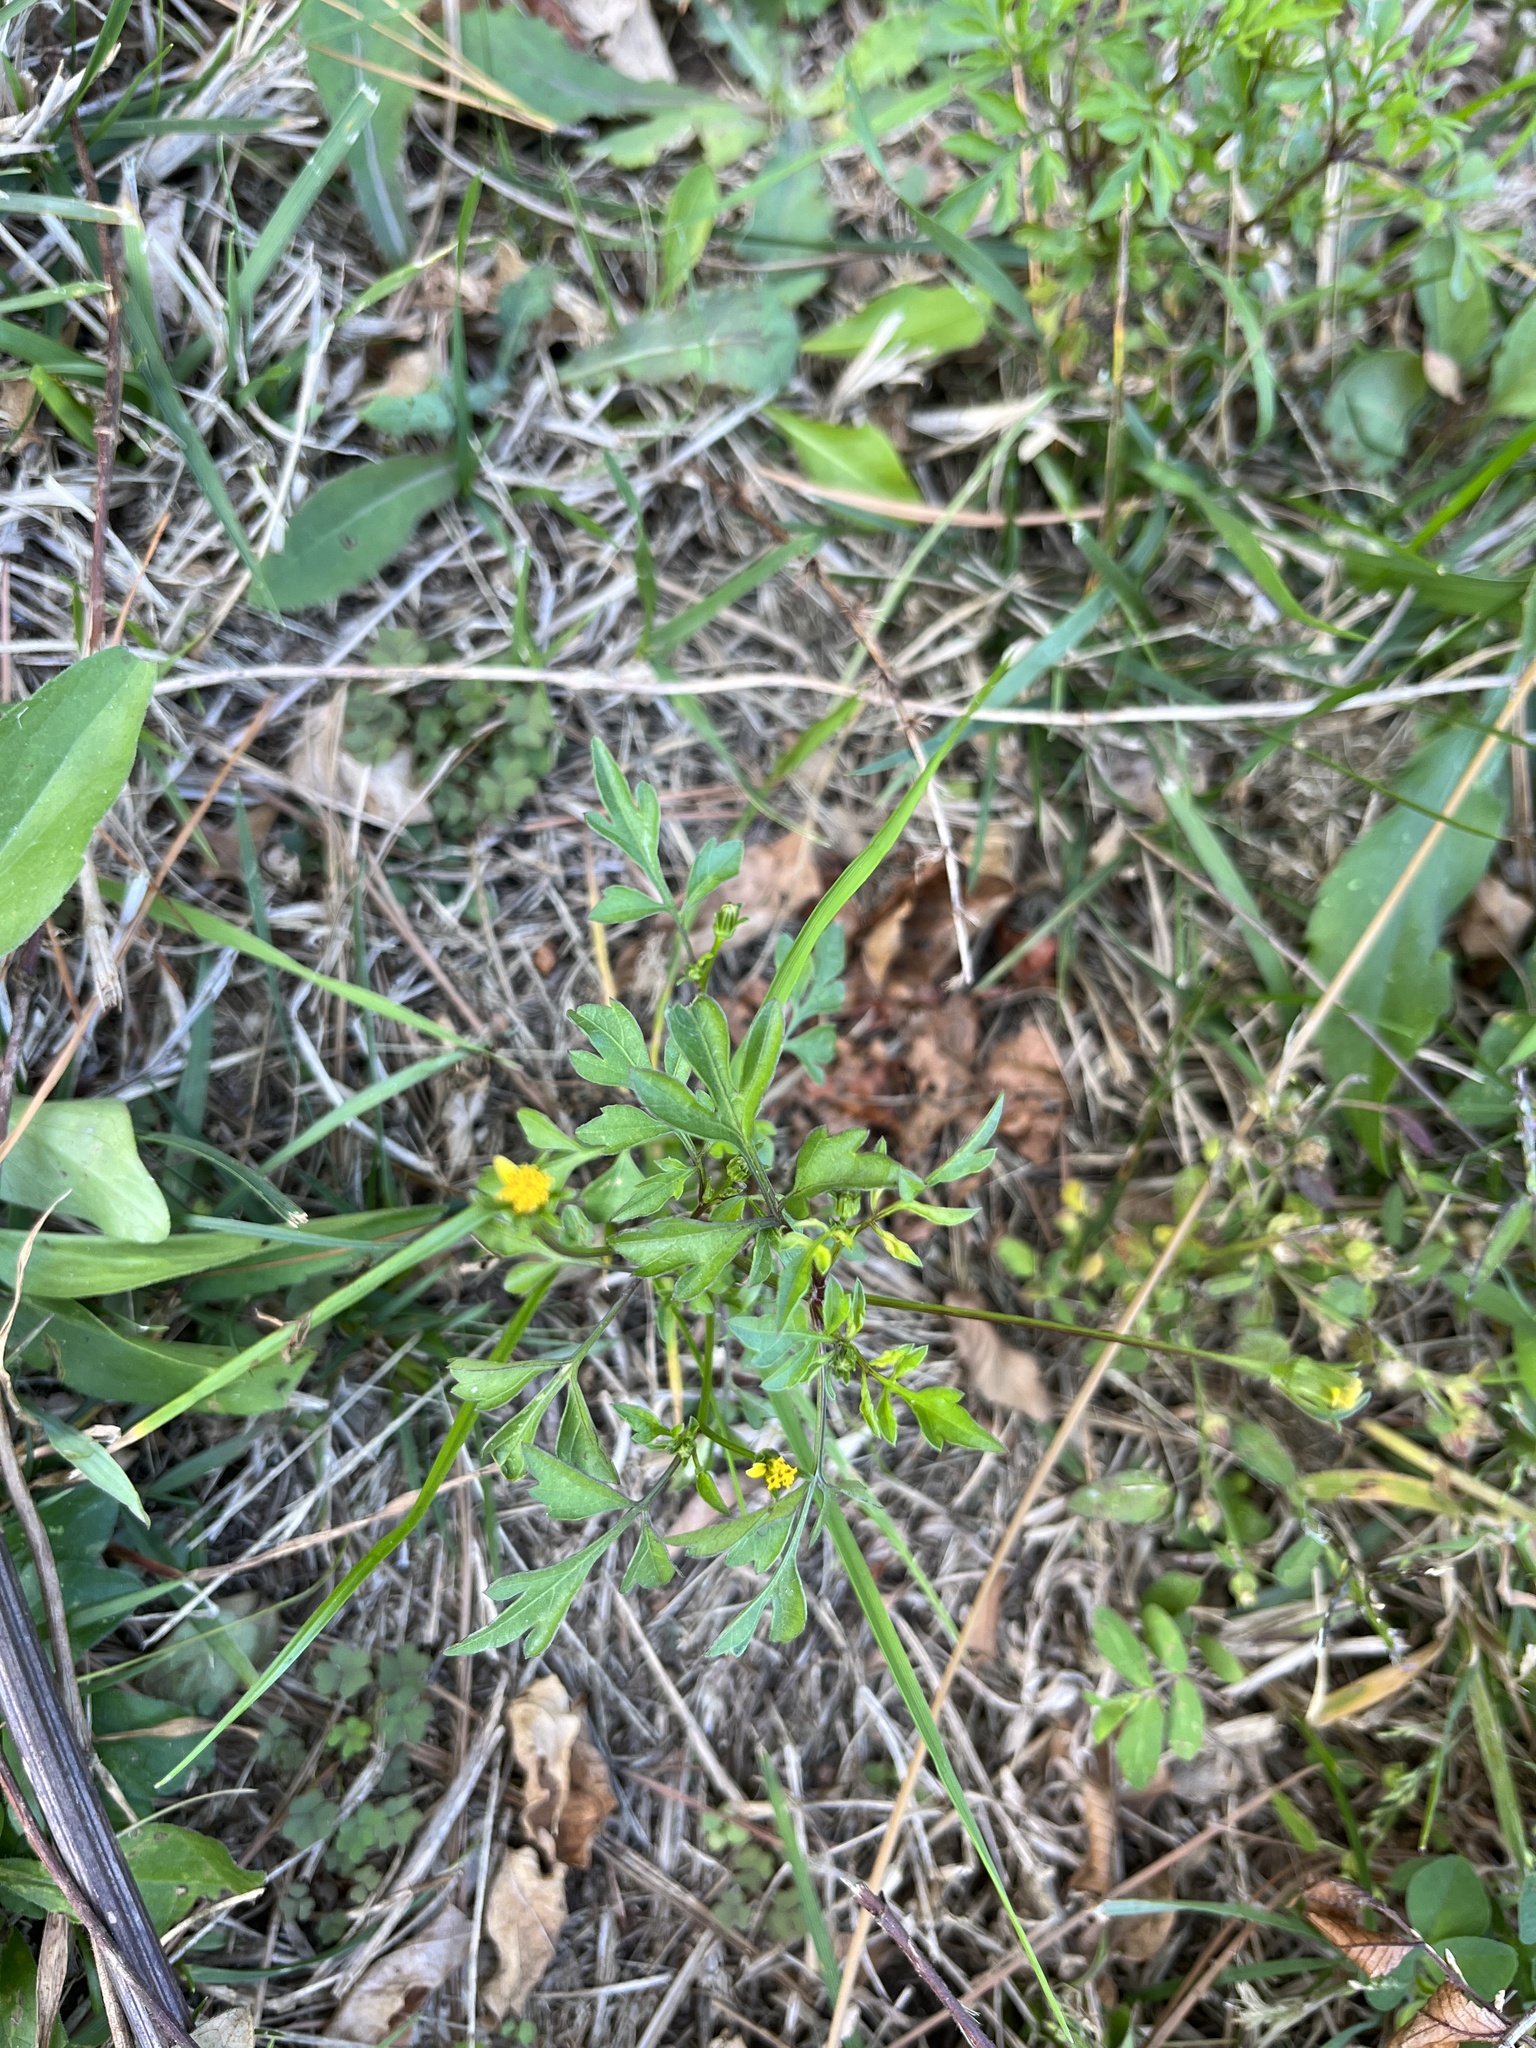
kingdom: Plantae
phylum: Tracheophyta
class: Magnoliopsida
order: Asterales
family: Asteraceae
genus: Bidens
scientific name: Bidens bipinnata
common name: Spanish-needles
